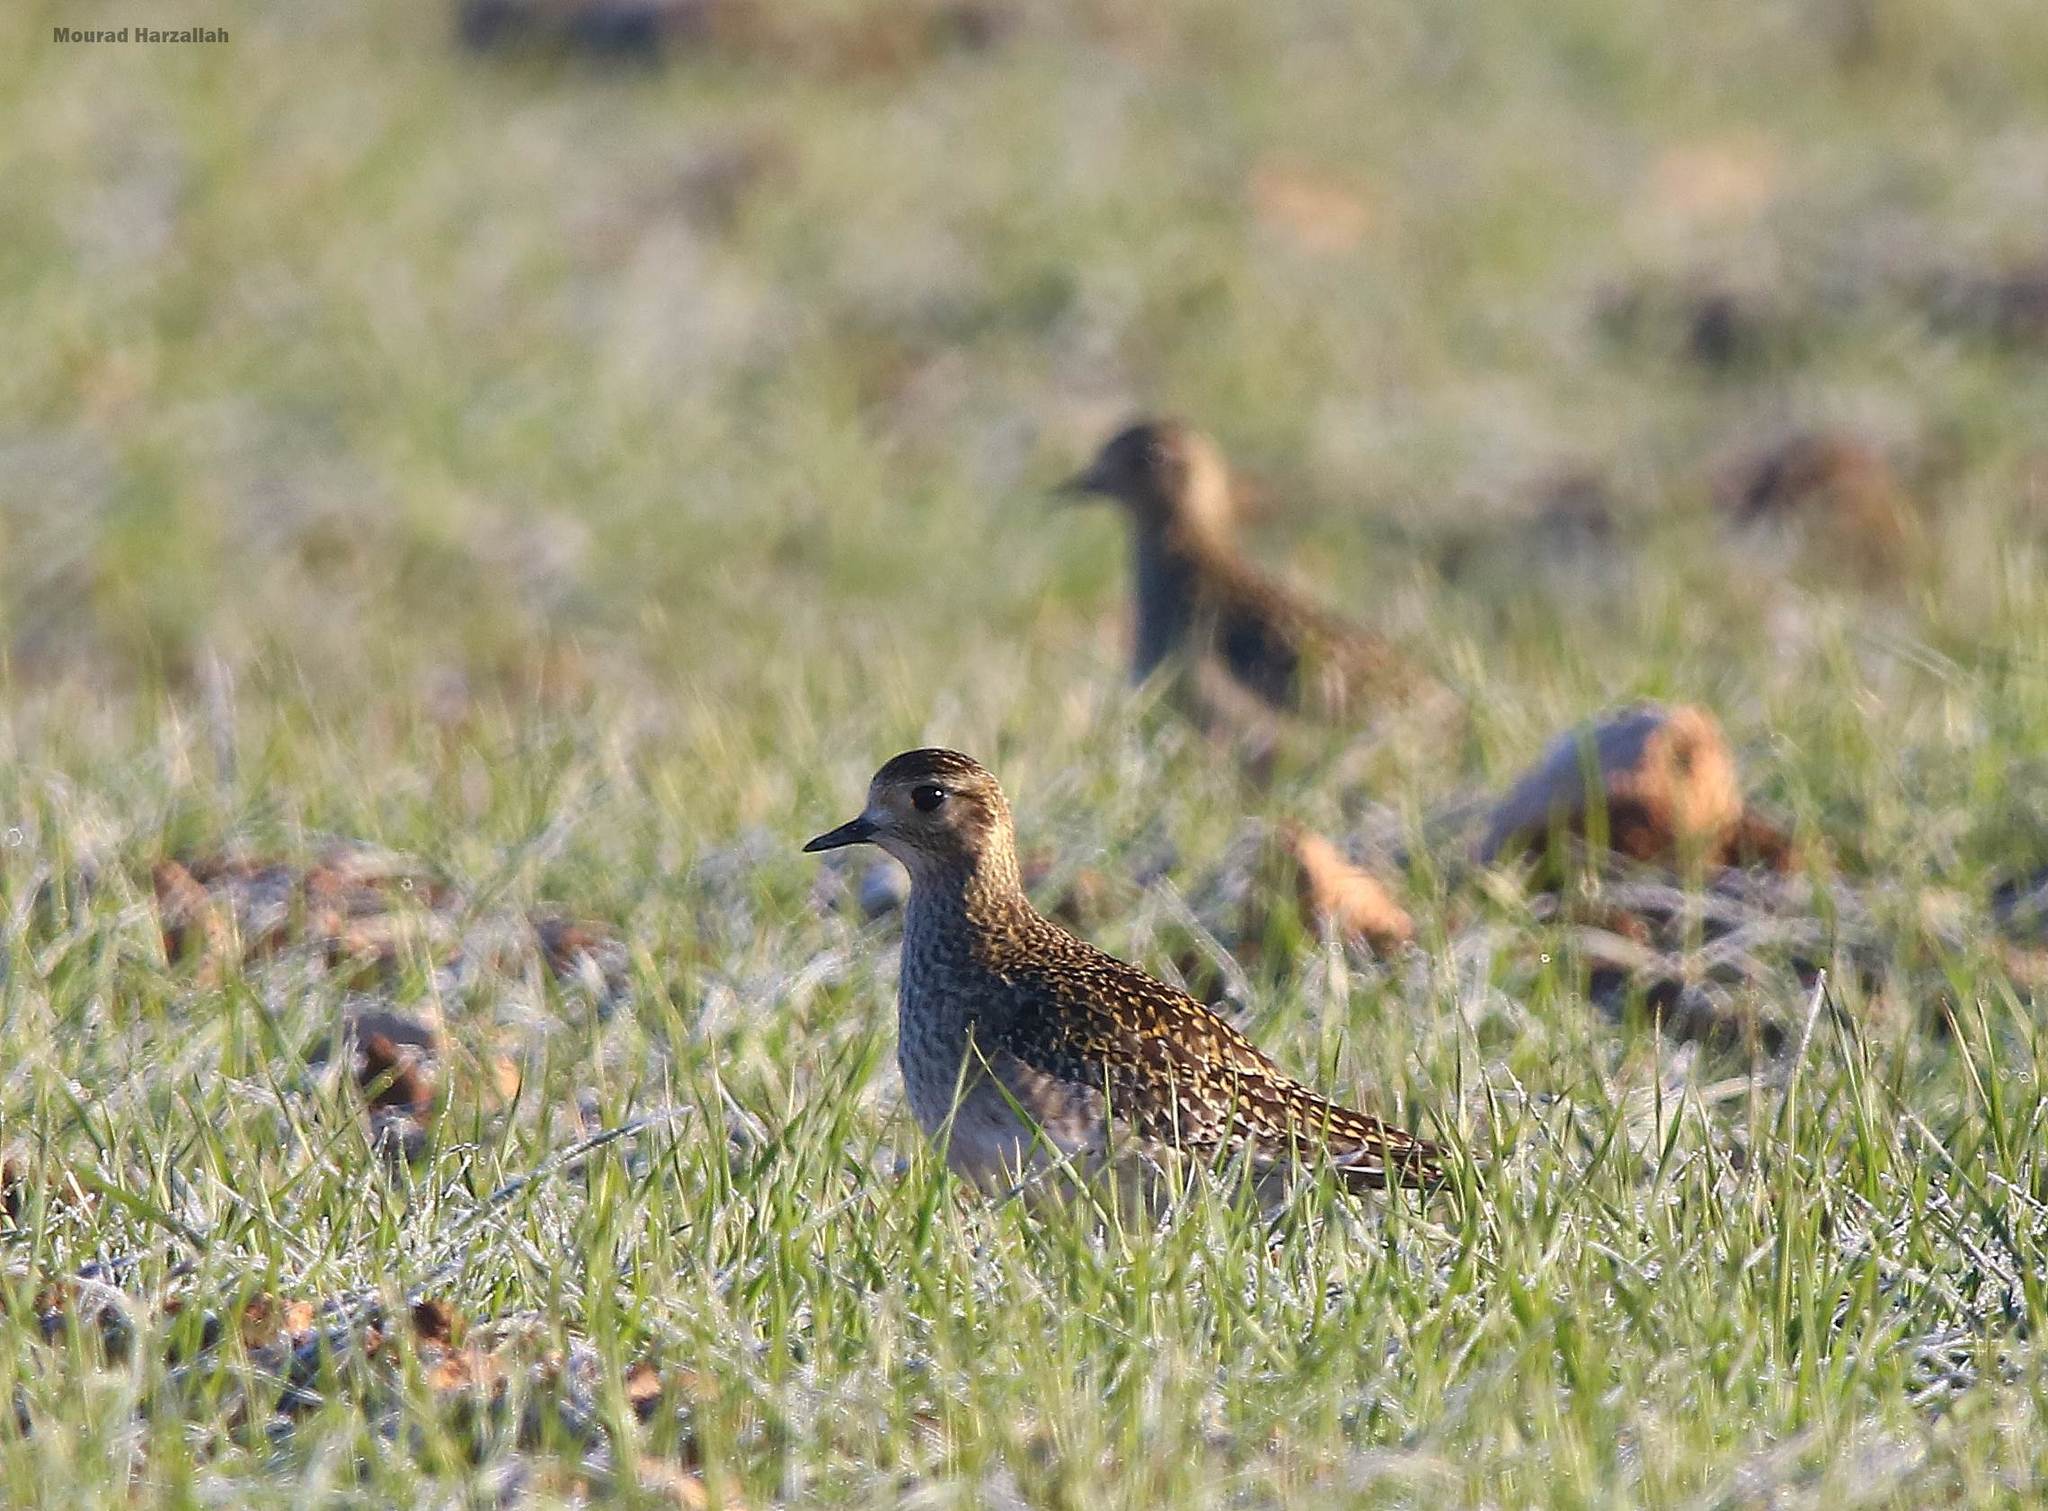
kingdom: Animalia
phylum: Chordata
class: Aves
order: Charadriiformes
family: Charadriidae
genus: Pluvialis
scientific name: Pluvialis apricaria
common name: European golden plover
